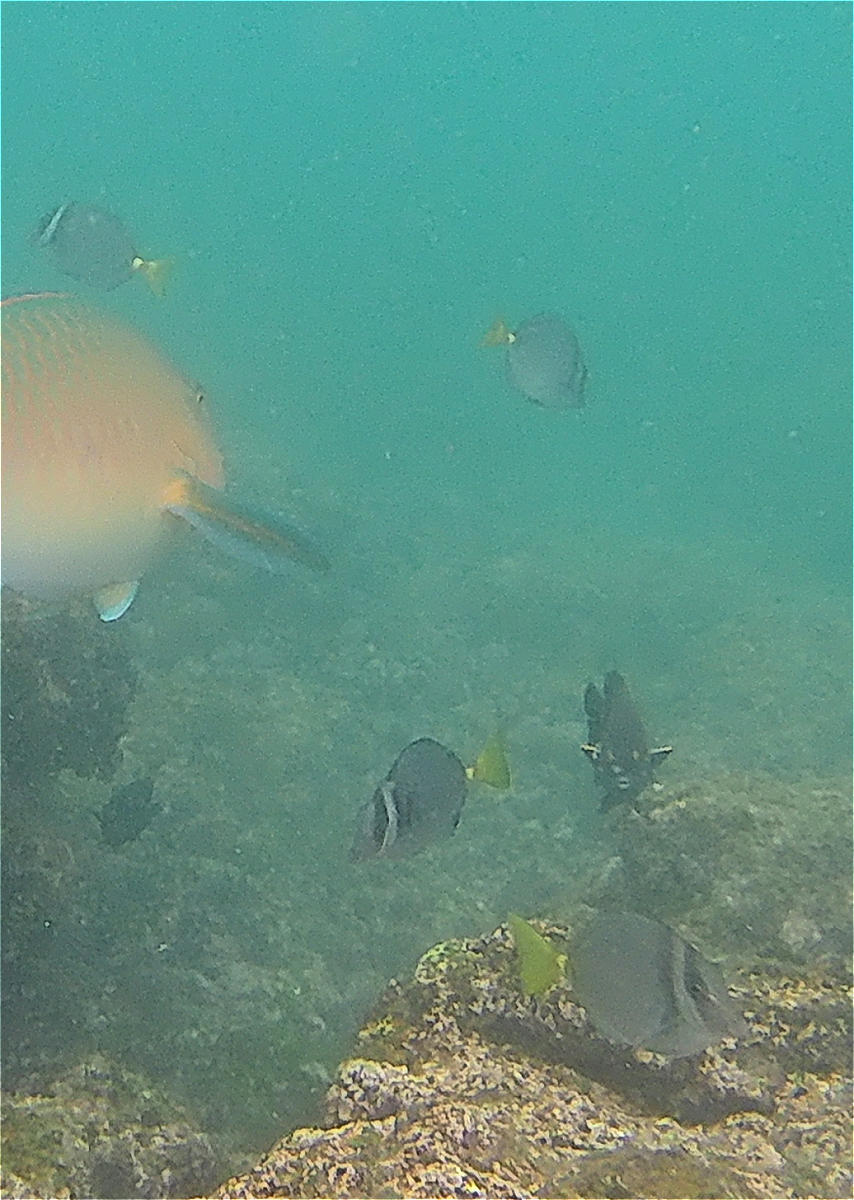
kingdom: Animalia
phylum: Chordata
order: Perciformes
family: Acanthuridae
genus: Prionurus
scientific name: Prionurus laticlavius
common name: Razor surgeonfish
